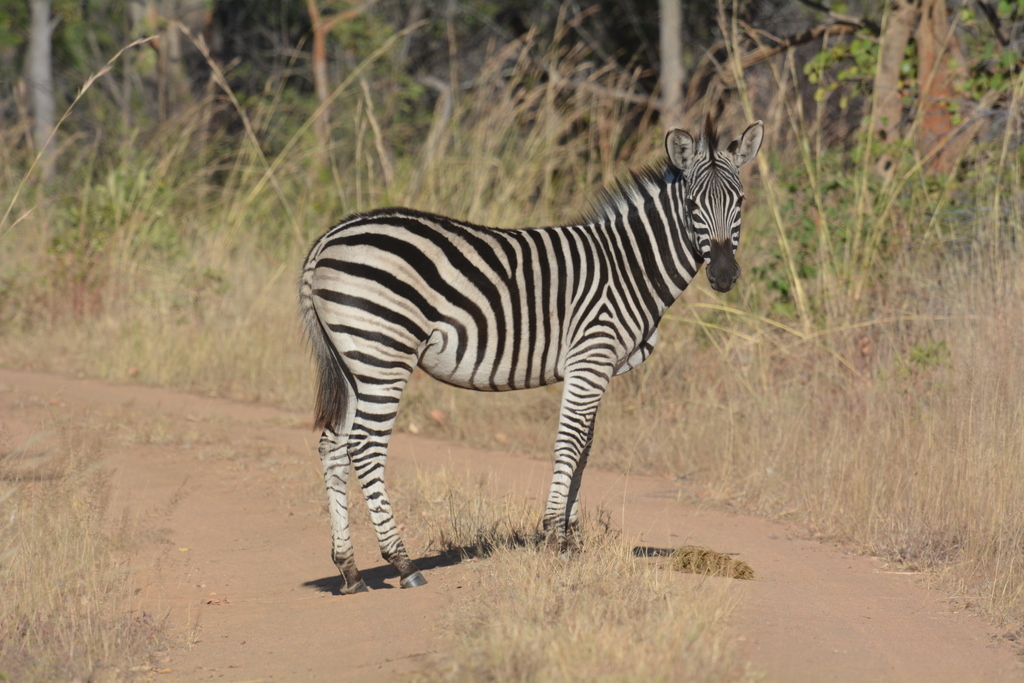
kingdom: Animalia
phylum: Chordata
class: Mammalia
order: Perissodactyla
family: Equidae
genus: Equus
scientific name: Equus quagga
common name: Plains zebra
